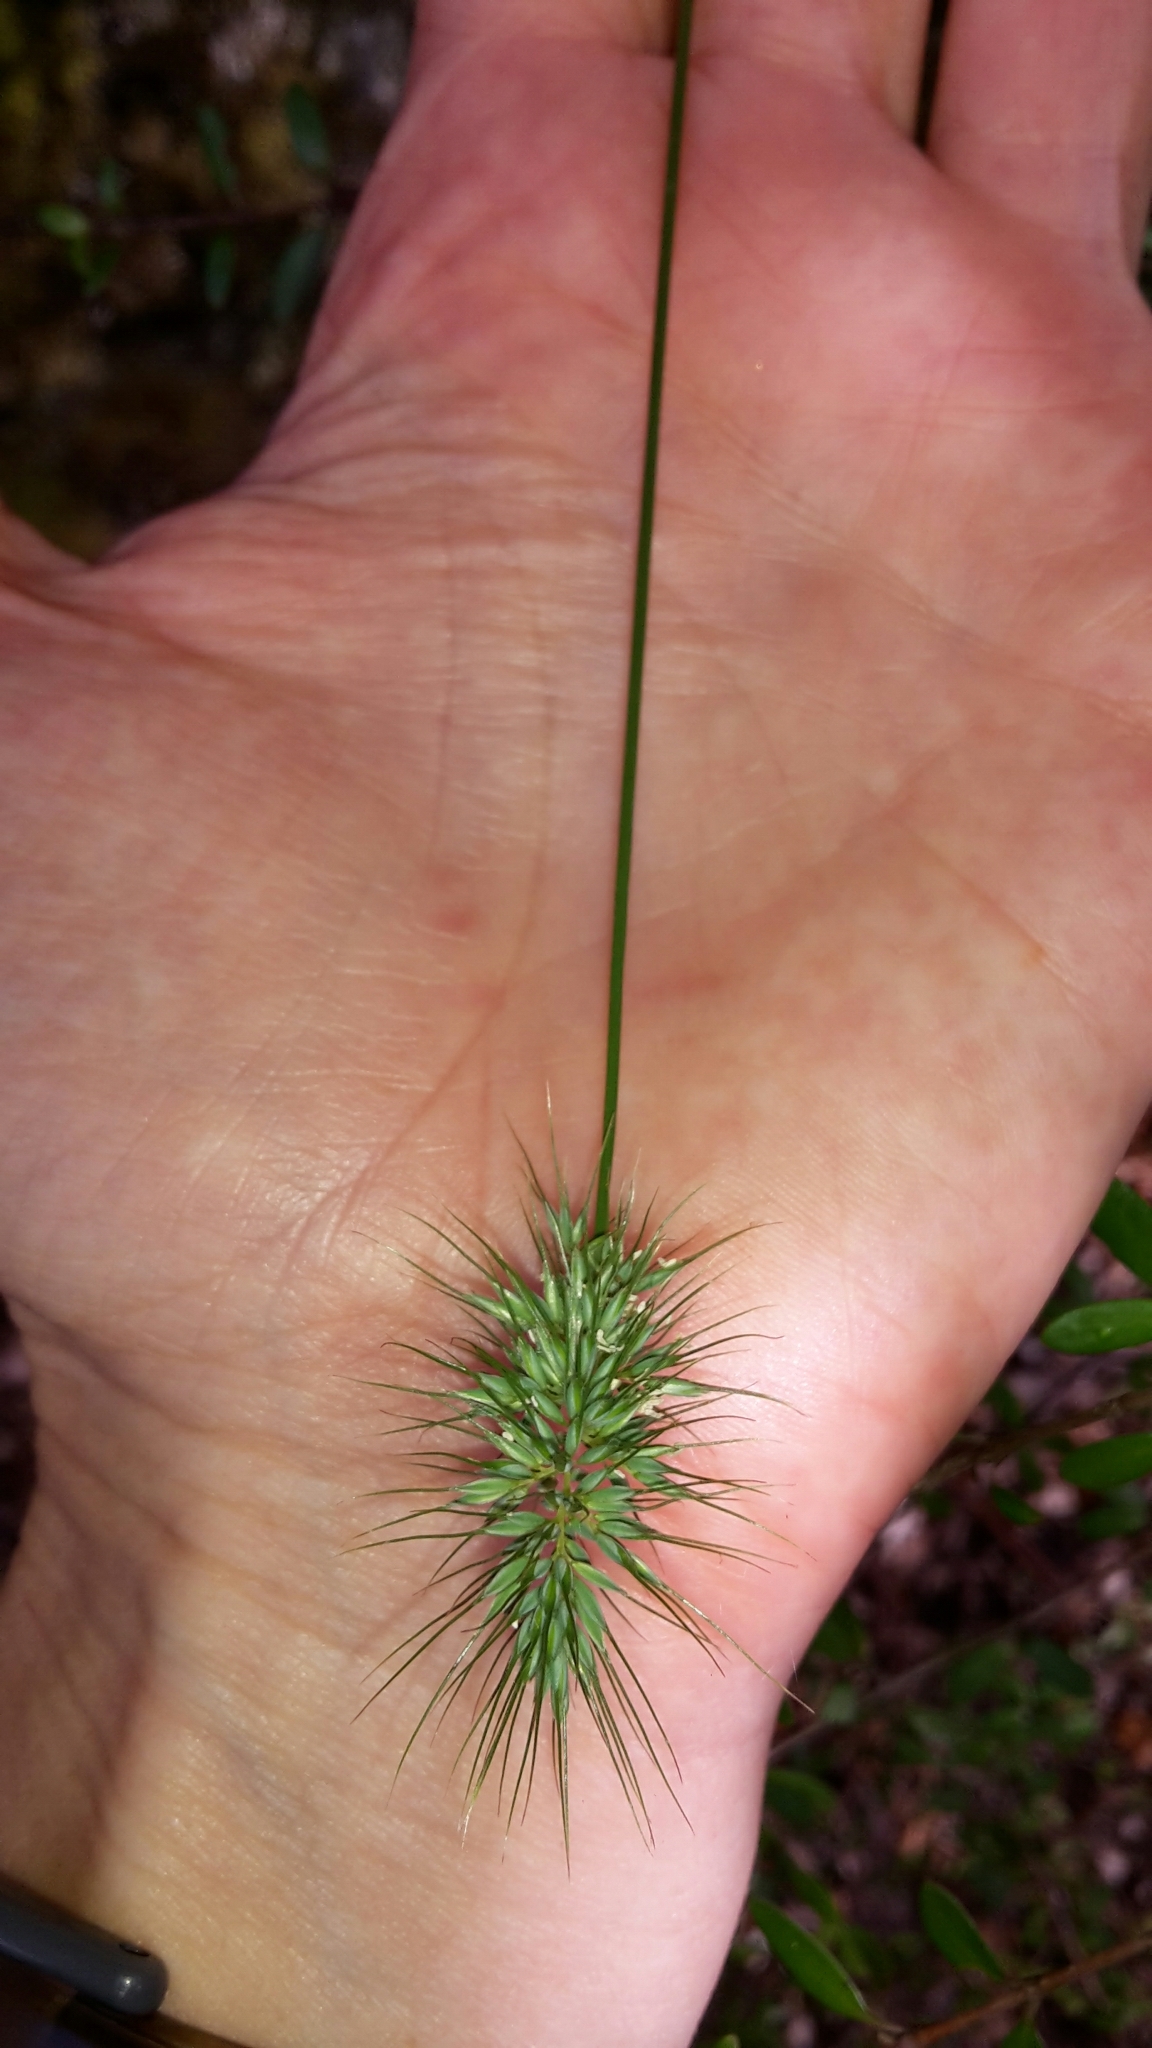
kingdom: Plantae
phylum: Tracheophyta
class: Liliopsida
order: Poales
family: Poaceae
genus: Echinopogon
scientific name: Echinopogon ovatus
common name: Hedgehog-grass
